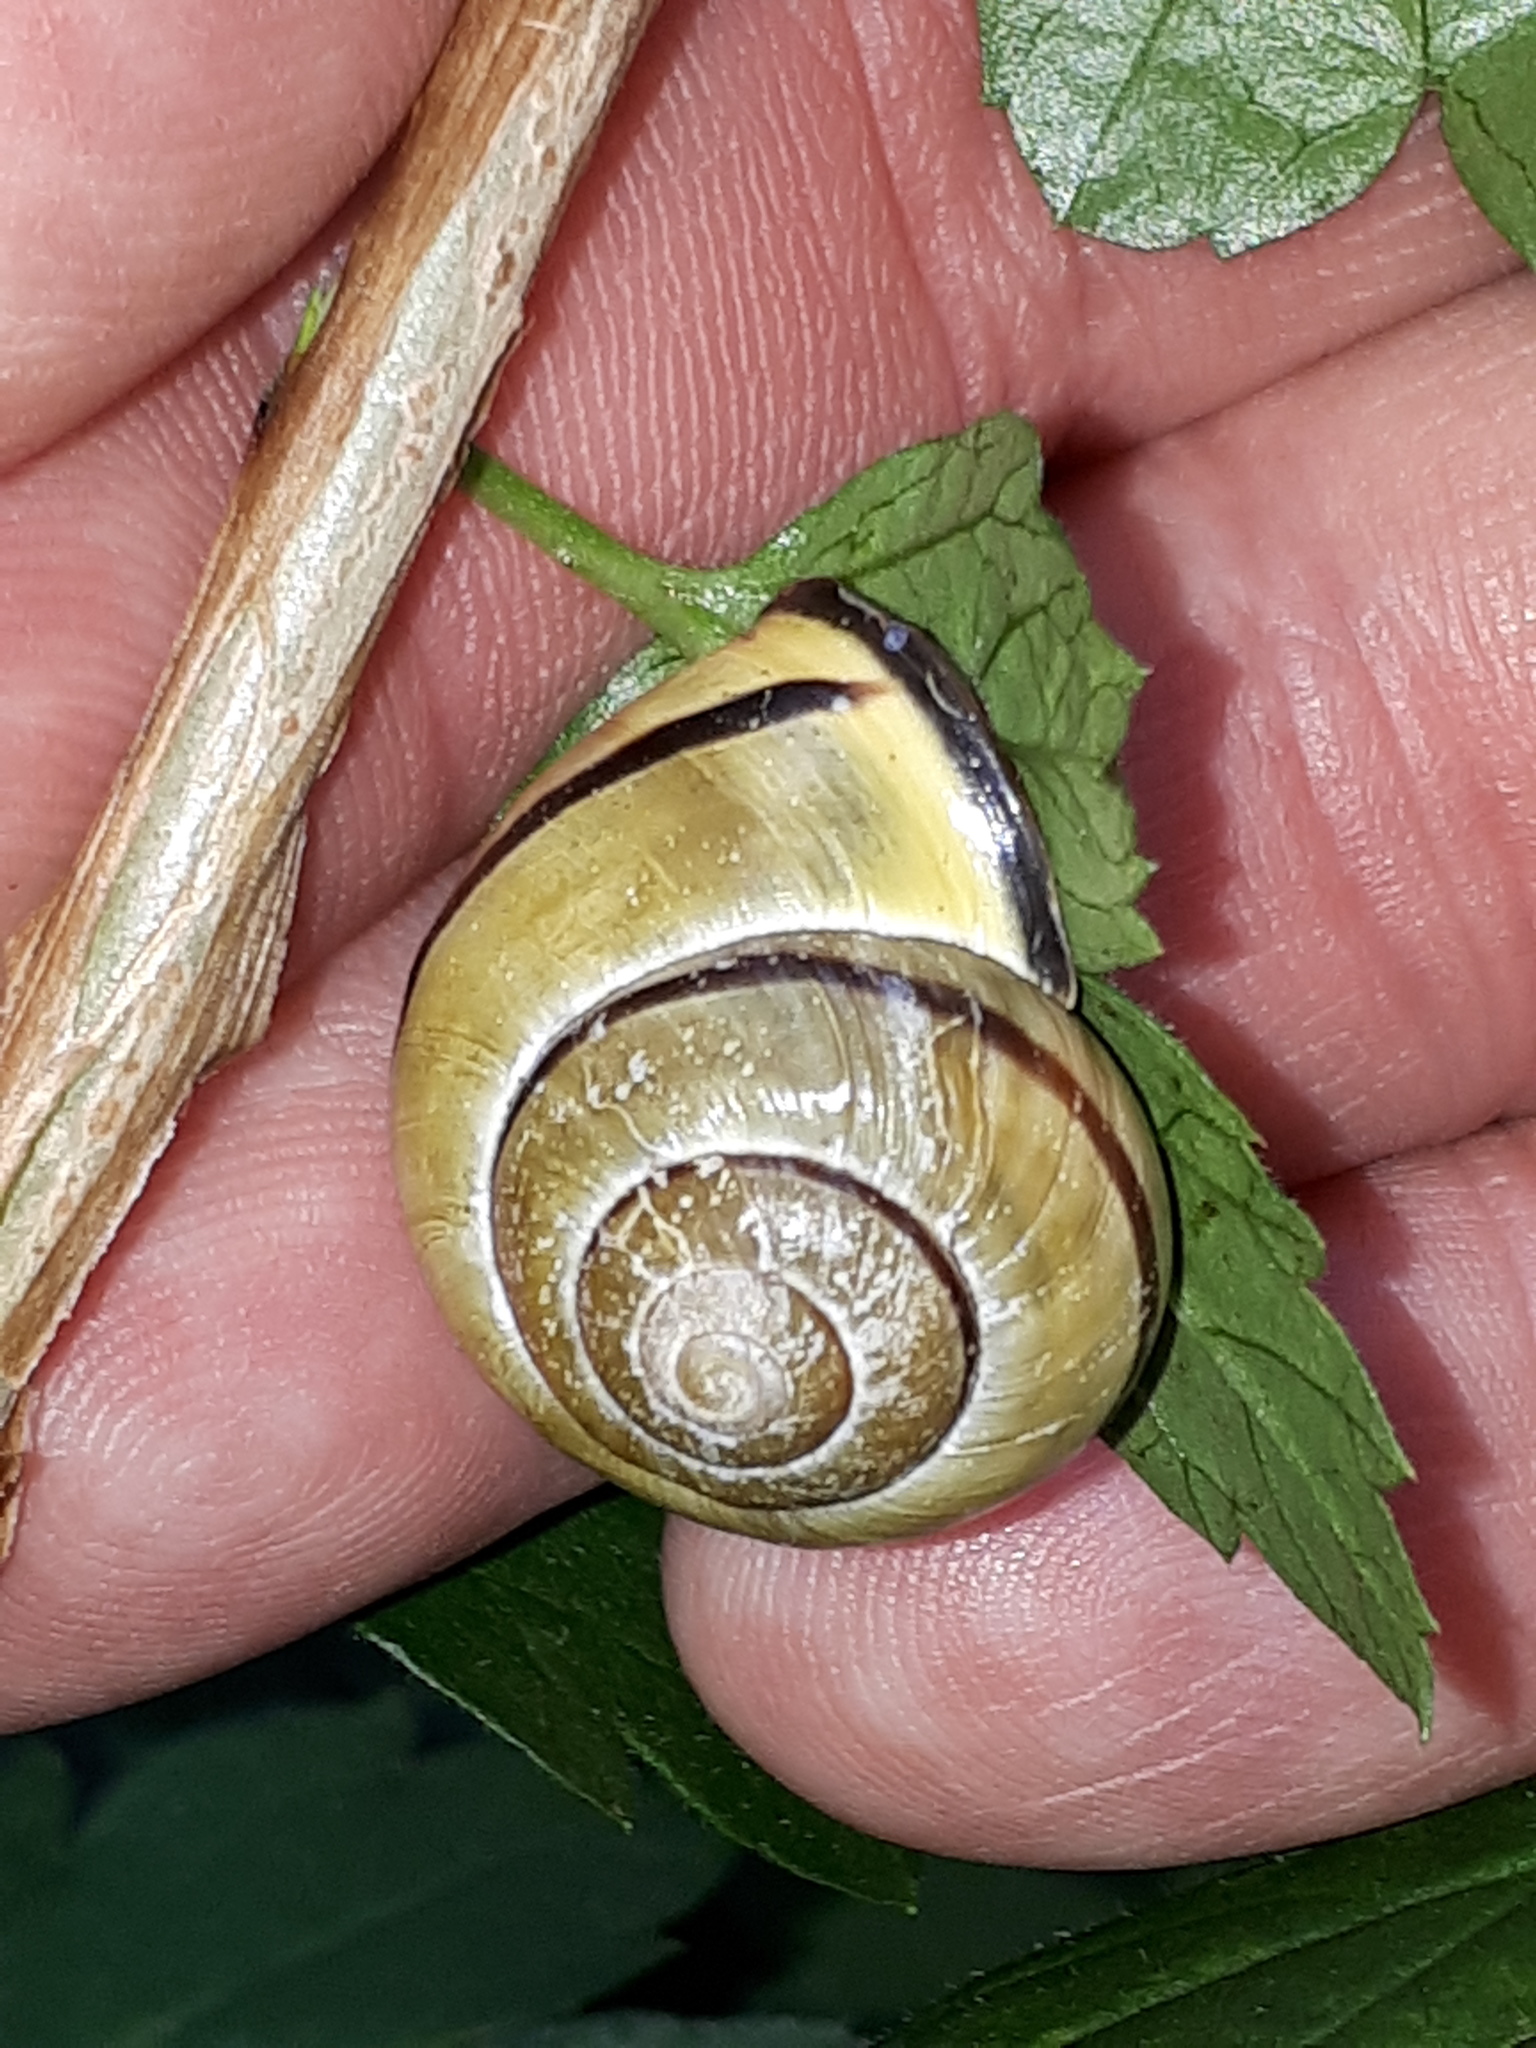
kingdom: Animalia
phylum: Mollusca
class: Gastropoda
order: Stylommatophora
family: Helicidae
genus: Cepaea
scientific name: Cepaea nemoralis
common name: Grovesnail
